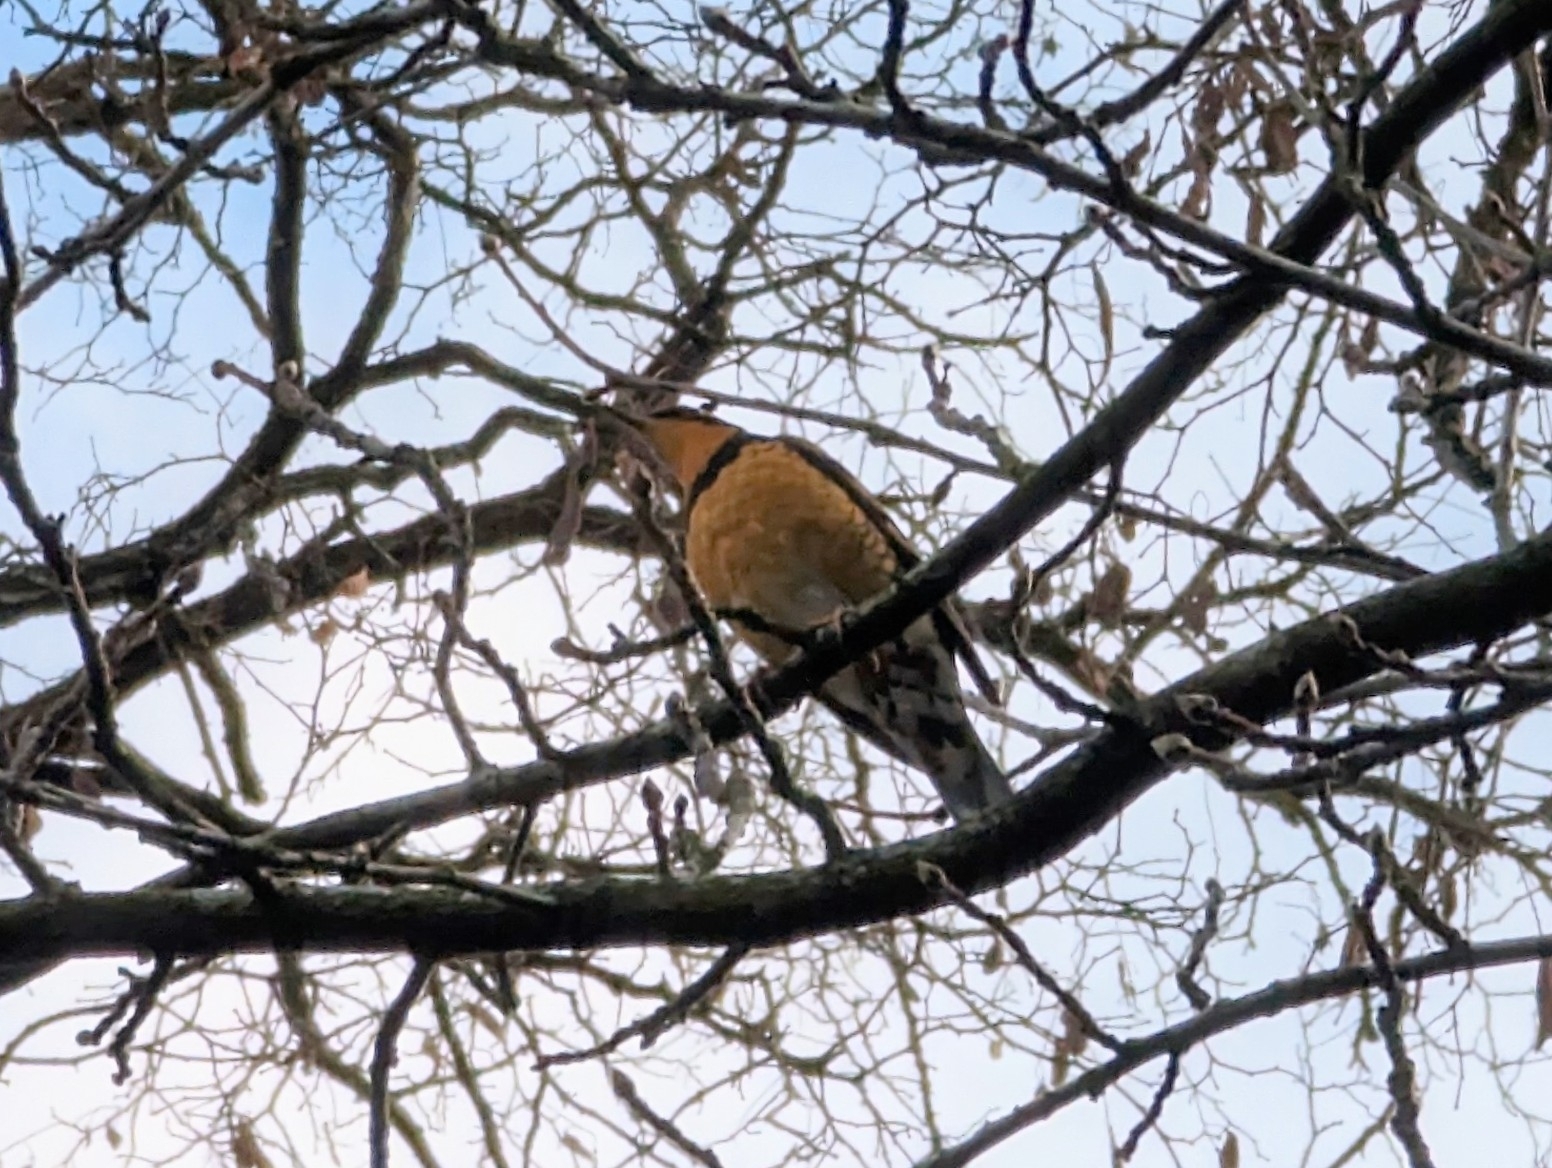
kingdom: Animalia
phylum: Chordata
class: Aves
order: Passeriformes
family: Turdidae
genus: Ixoreus
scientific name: Ixoreus naevius
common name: Varied thrush
